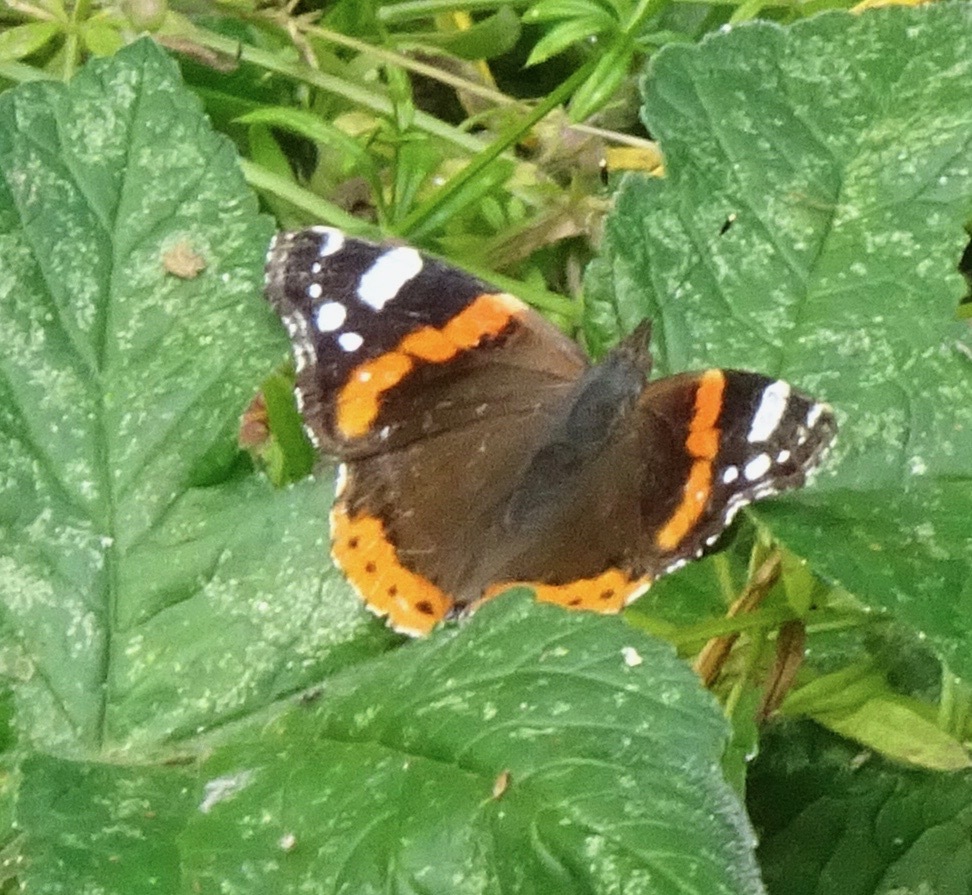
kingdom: Animalia
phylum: Arthropoda
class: Insecta
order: Lepidoptera
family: Nymphalidae
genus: Vanessa
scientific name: Vanessa atalanta
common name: Red admiral
